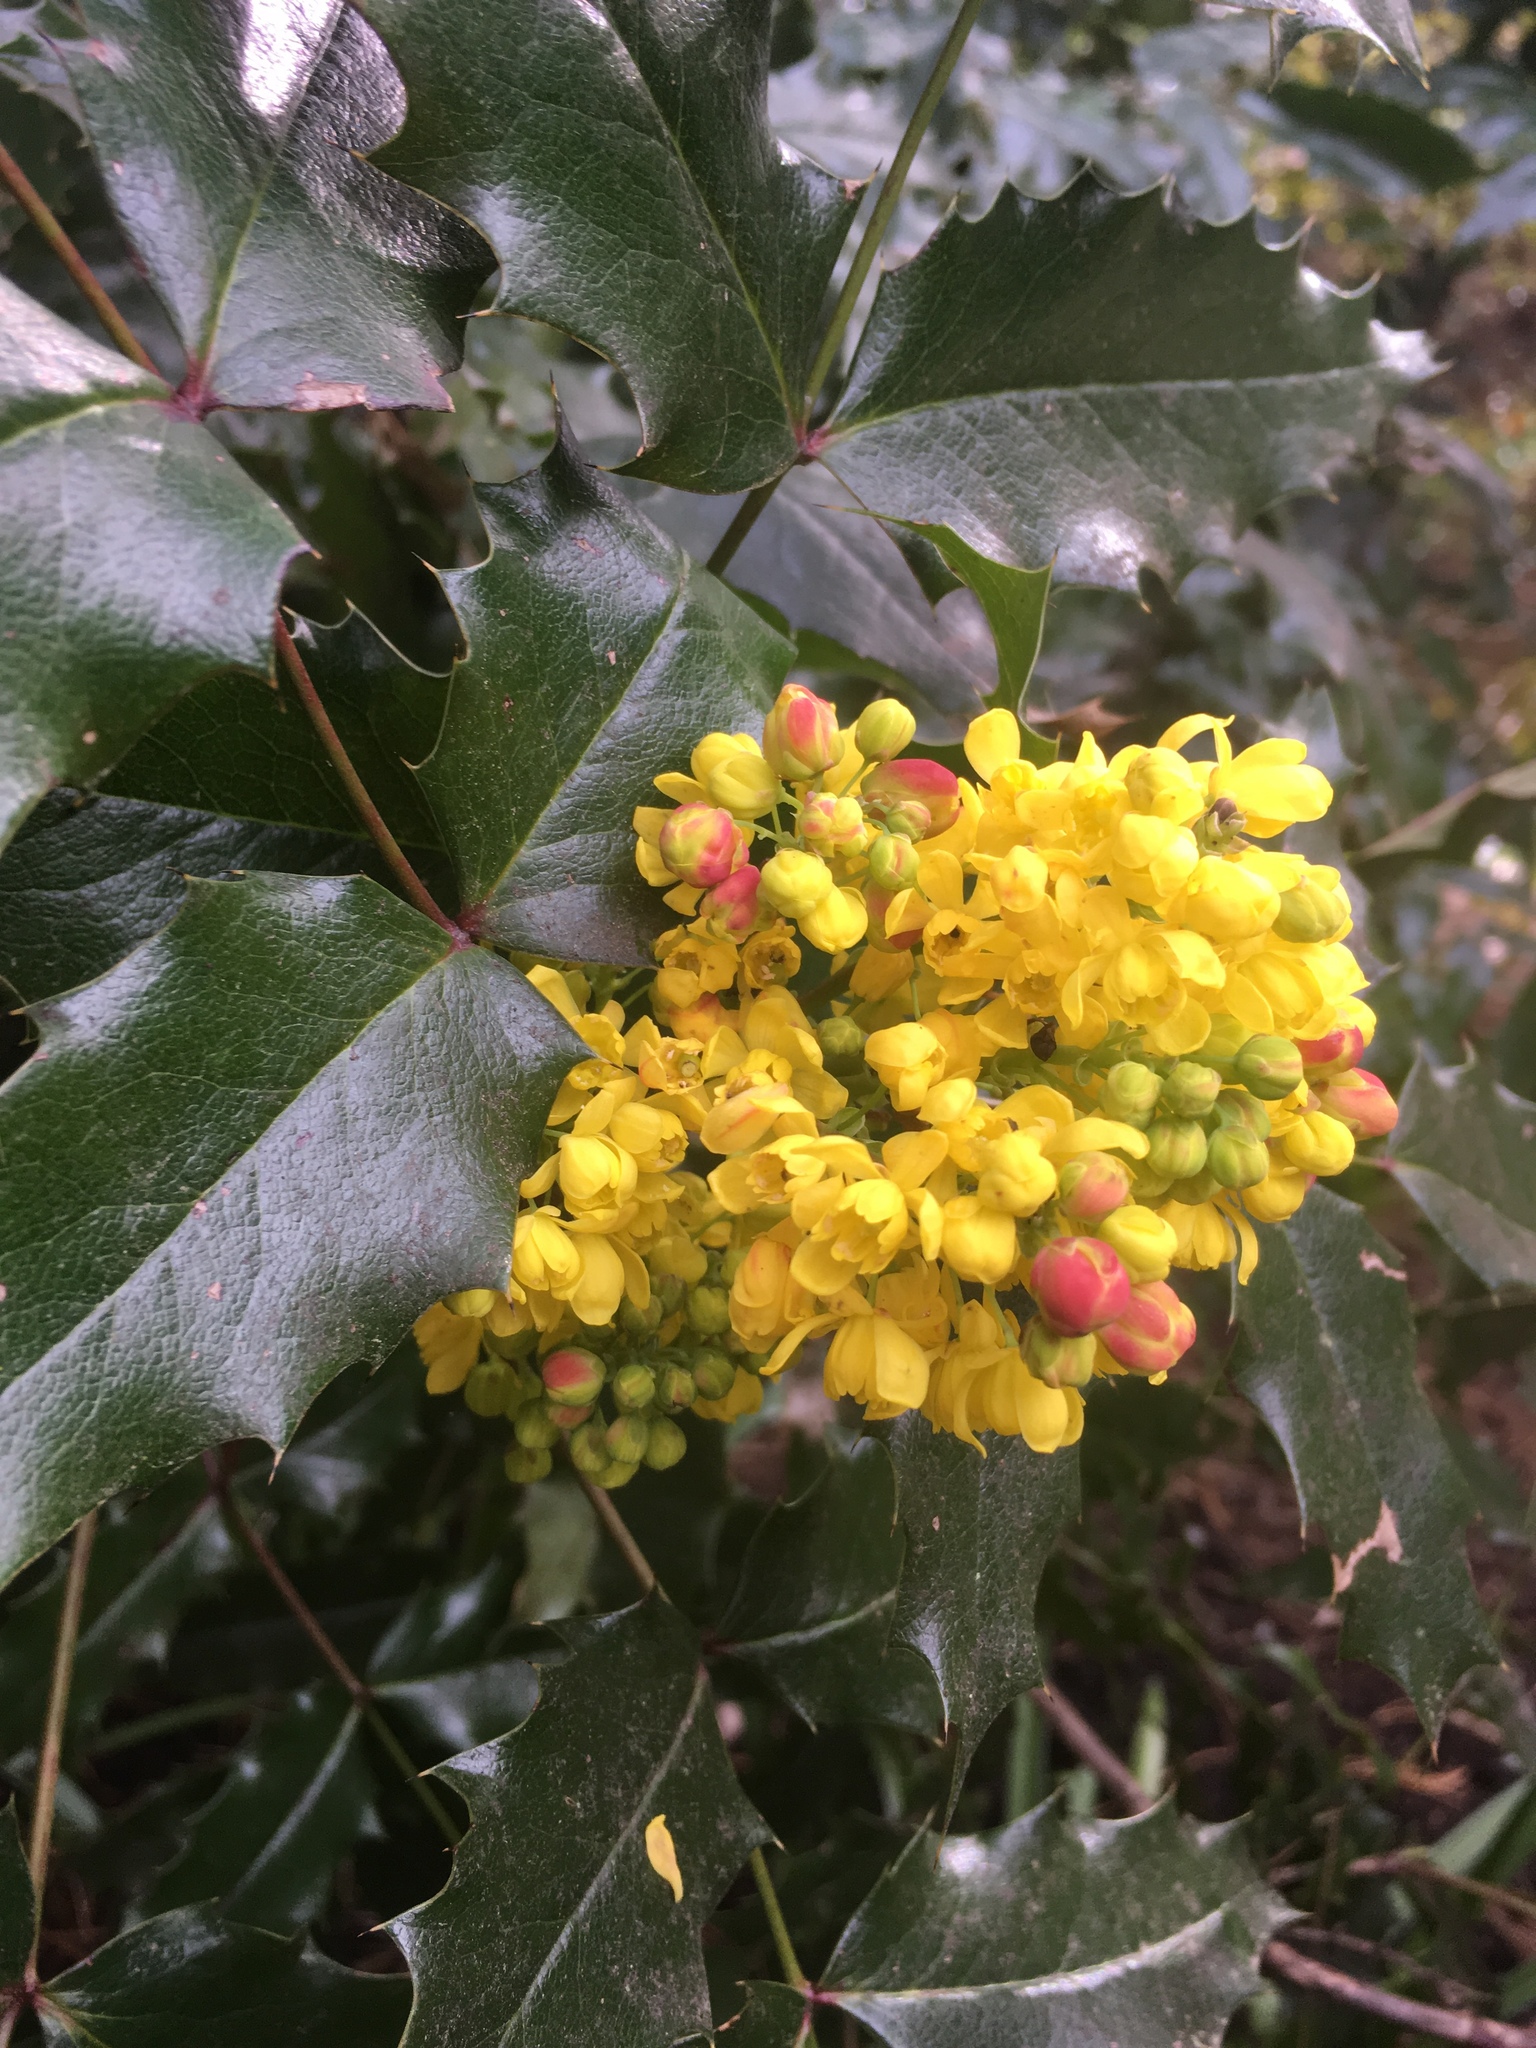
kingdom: Plantae
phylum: Tracheophyta
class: Magnoliopsida
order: Ranunculales
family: Berberidaceae
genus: Mahonia
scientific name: Mahonia aquifolium
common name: Oregon-grape
